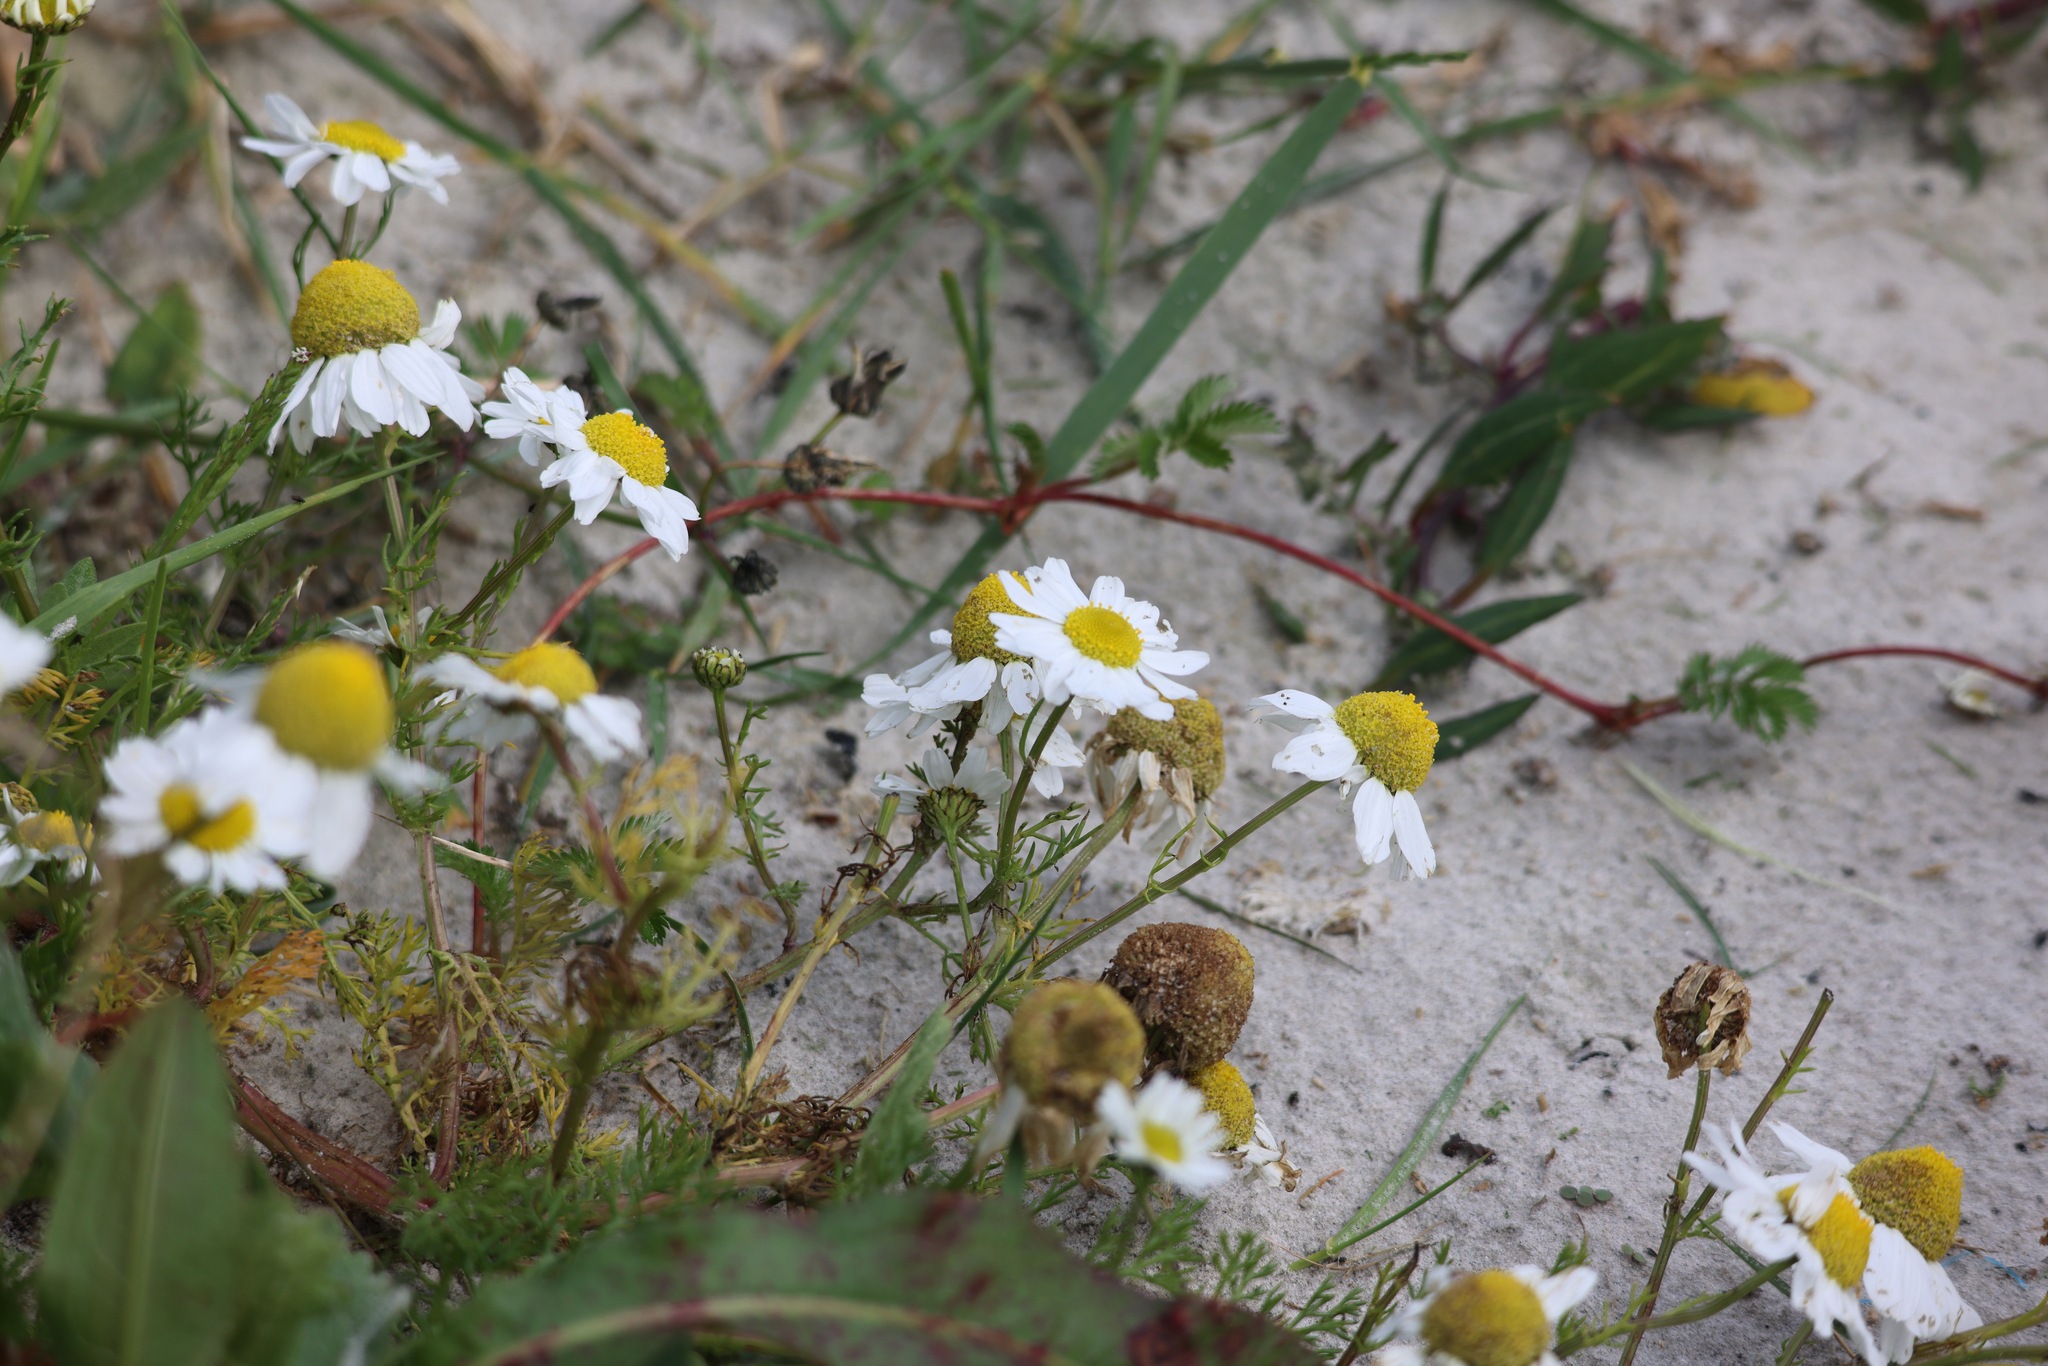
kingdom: Plantae
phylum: Tracheophyta
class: Magnoliopsida
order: Asterales
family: Asteraceae
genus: Tripleurospermum
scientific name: Tripleurospermum maritimum
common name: Sea mayweed
